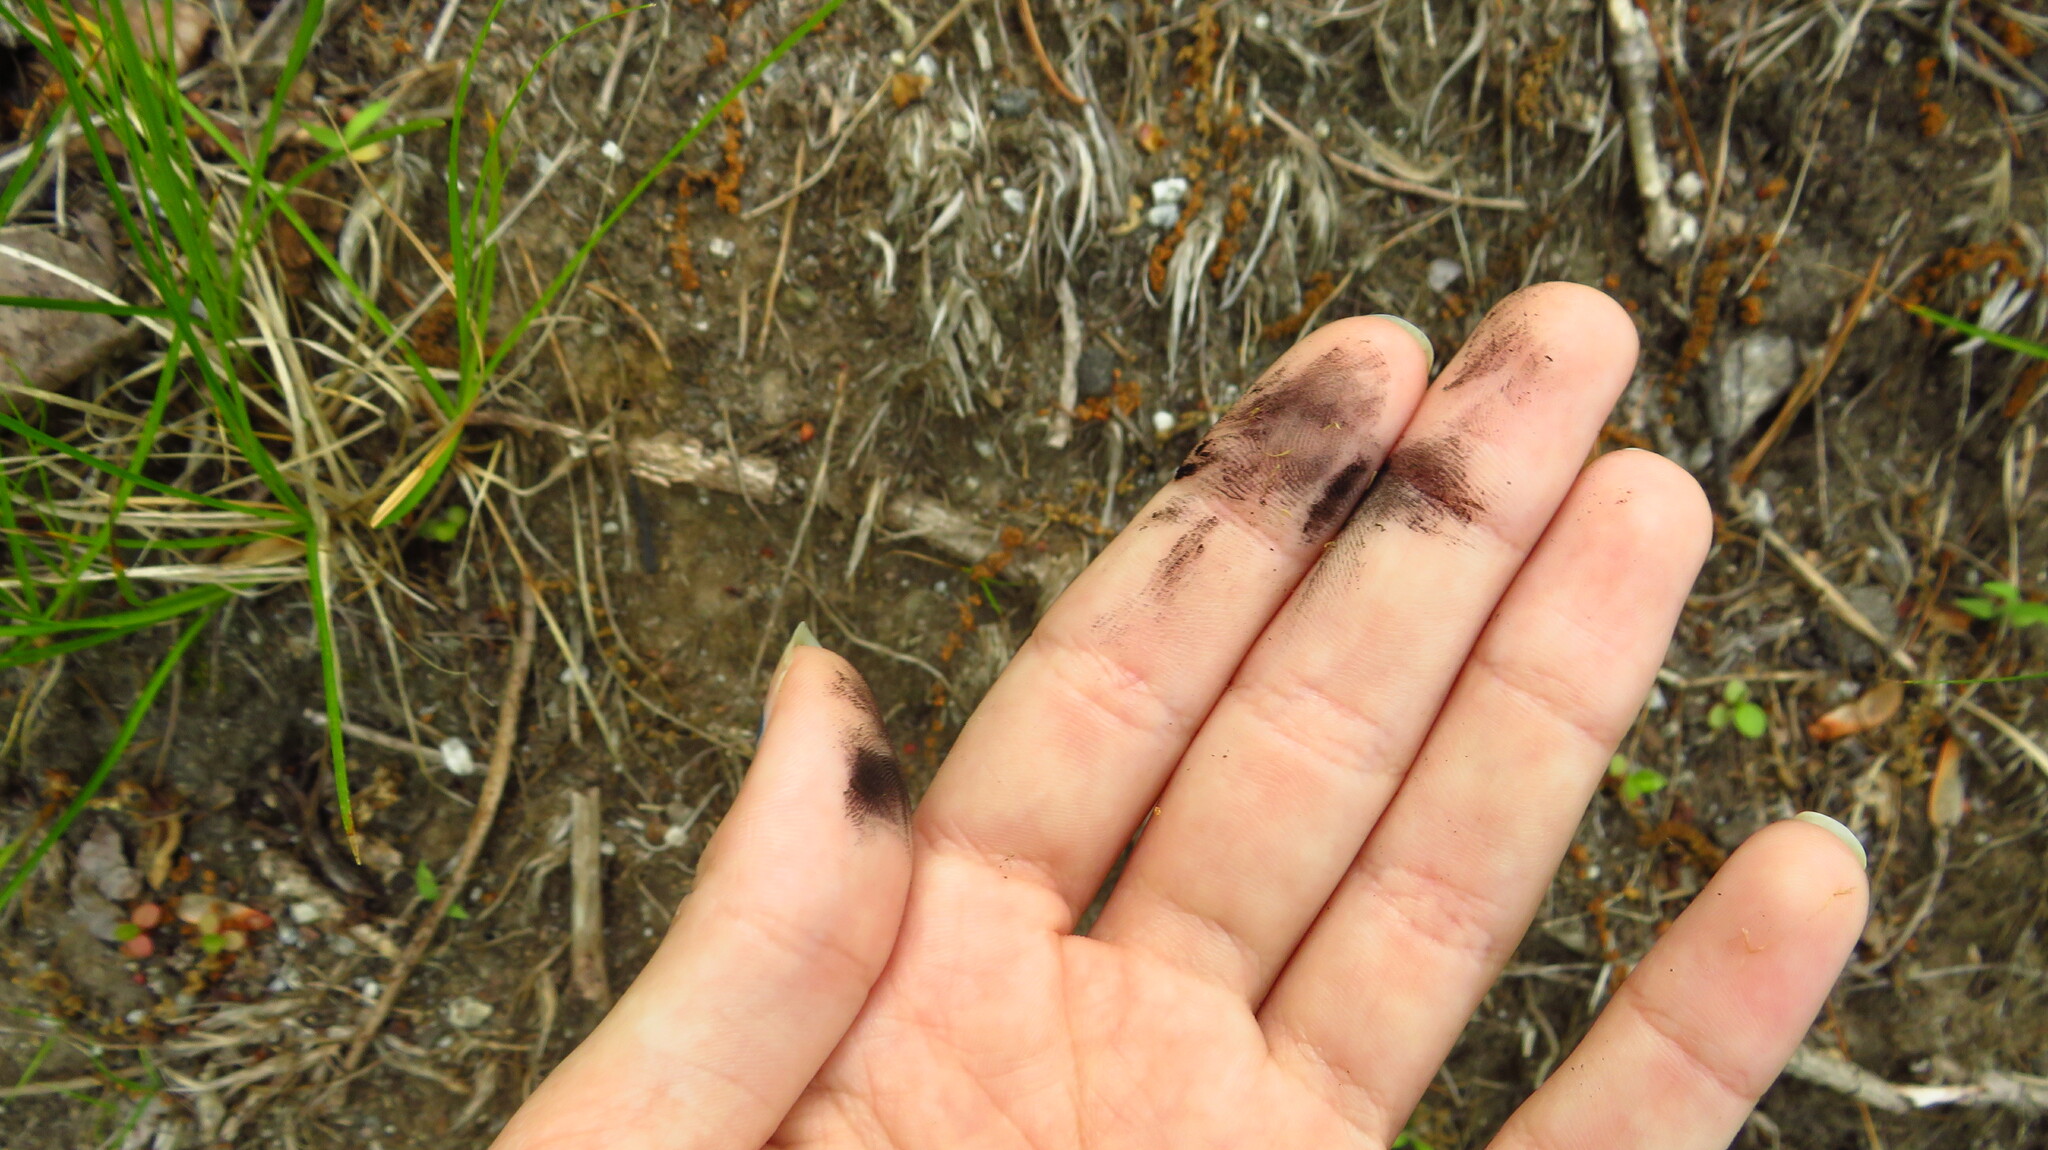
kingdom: Fungi
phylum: Basidiomycota
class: Ustilaginomycetes
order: Ustilaginales
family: Anthracoideaceae
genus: Anthracoidea
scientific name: Anthracoidea caricis
